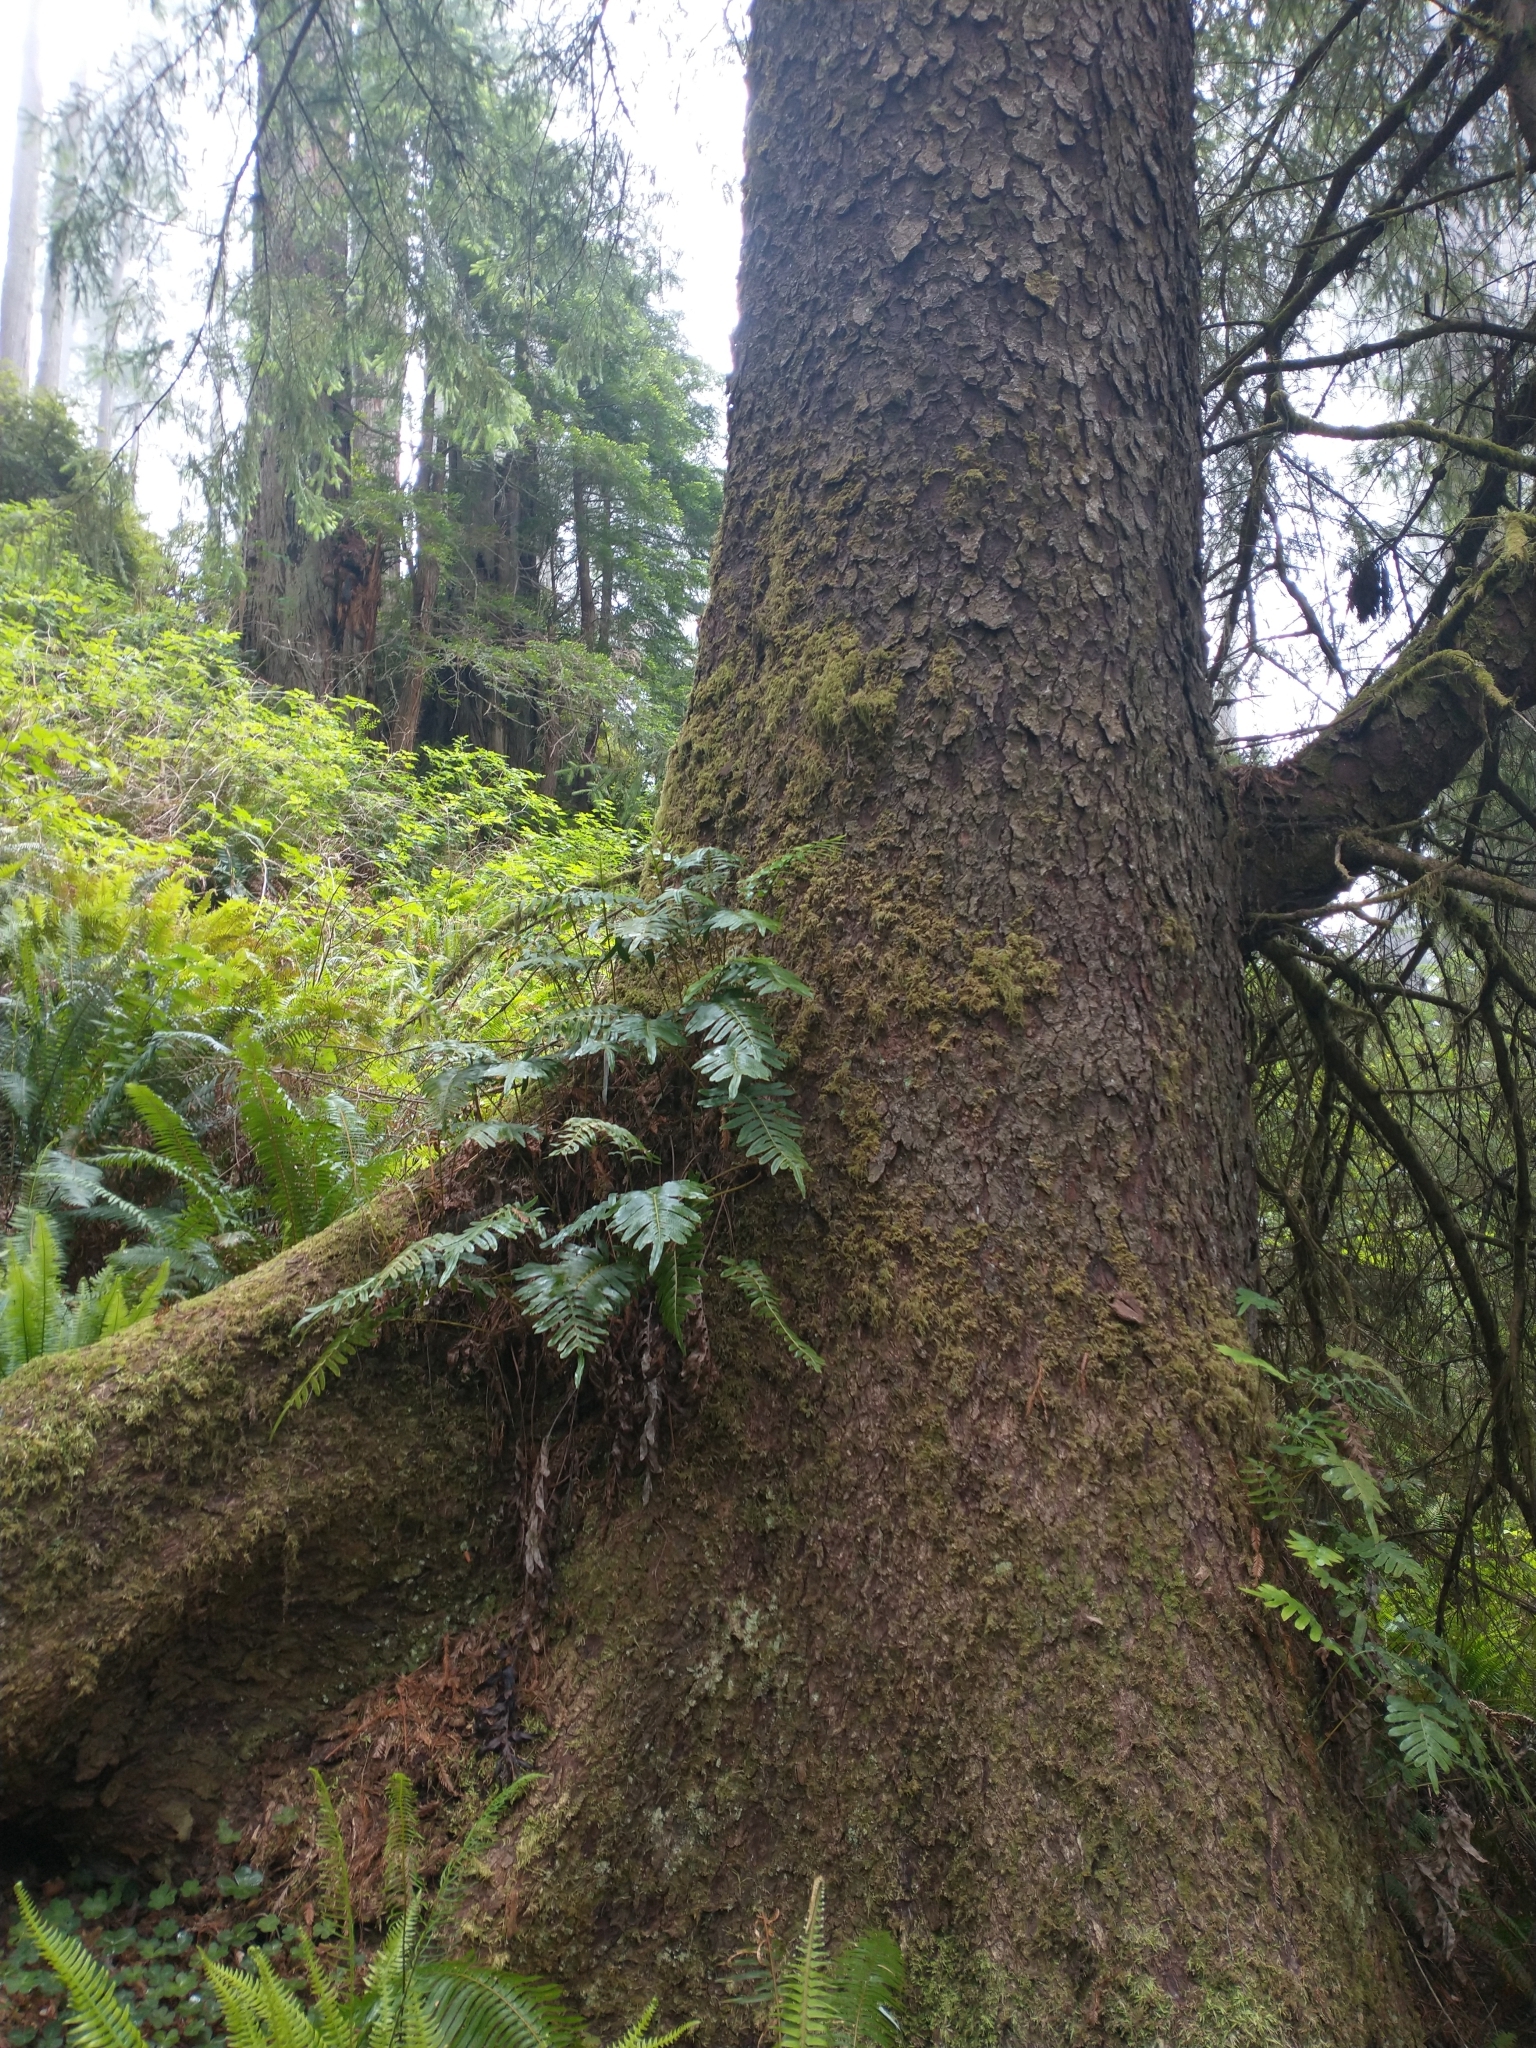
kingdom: Plantae
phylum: Tracheophyta
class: Polypodiopsida
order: Polypodiales
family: Polypodiaceae
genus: Polypodium
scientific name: Polypodium scouleri
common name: Scouler's polypody
